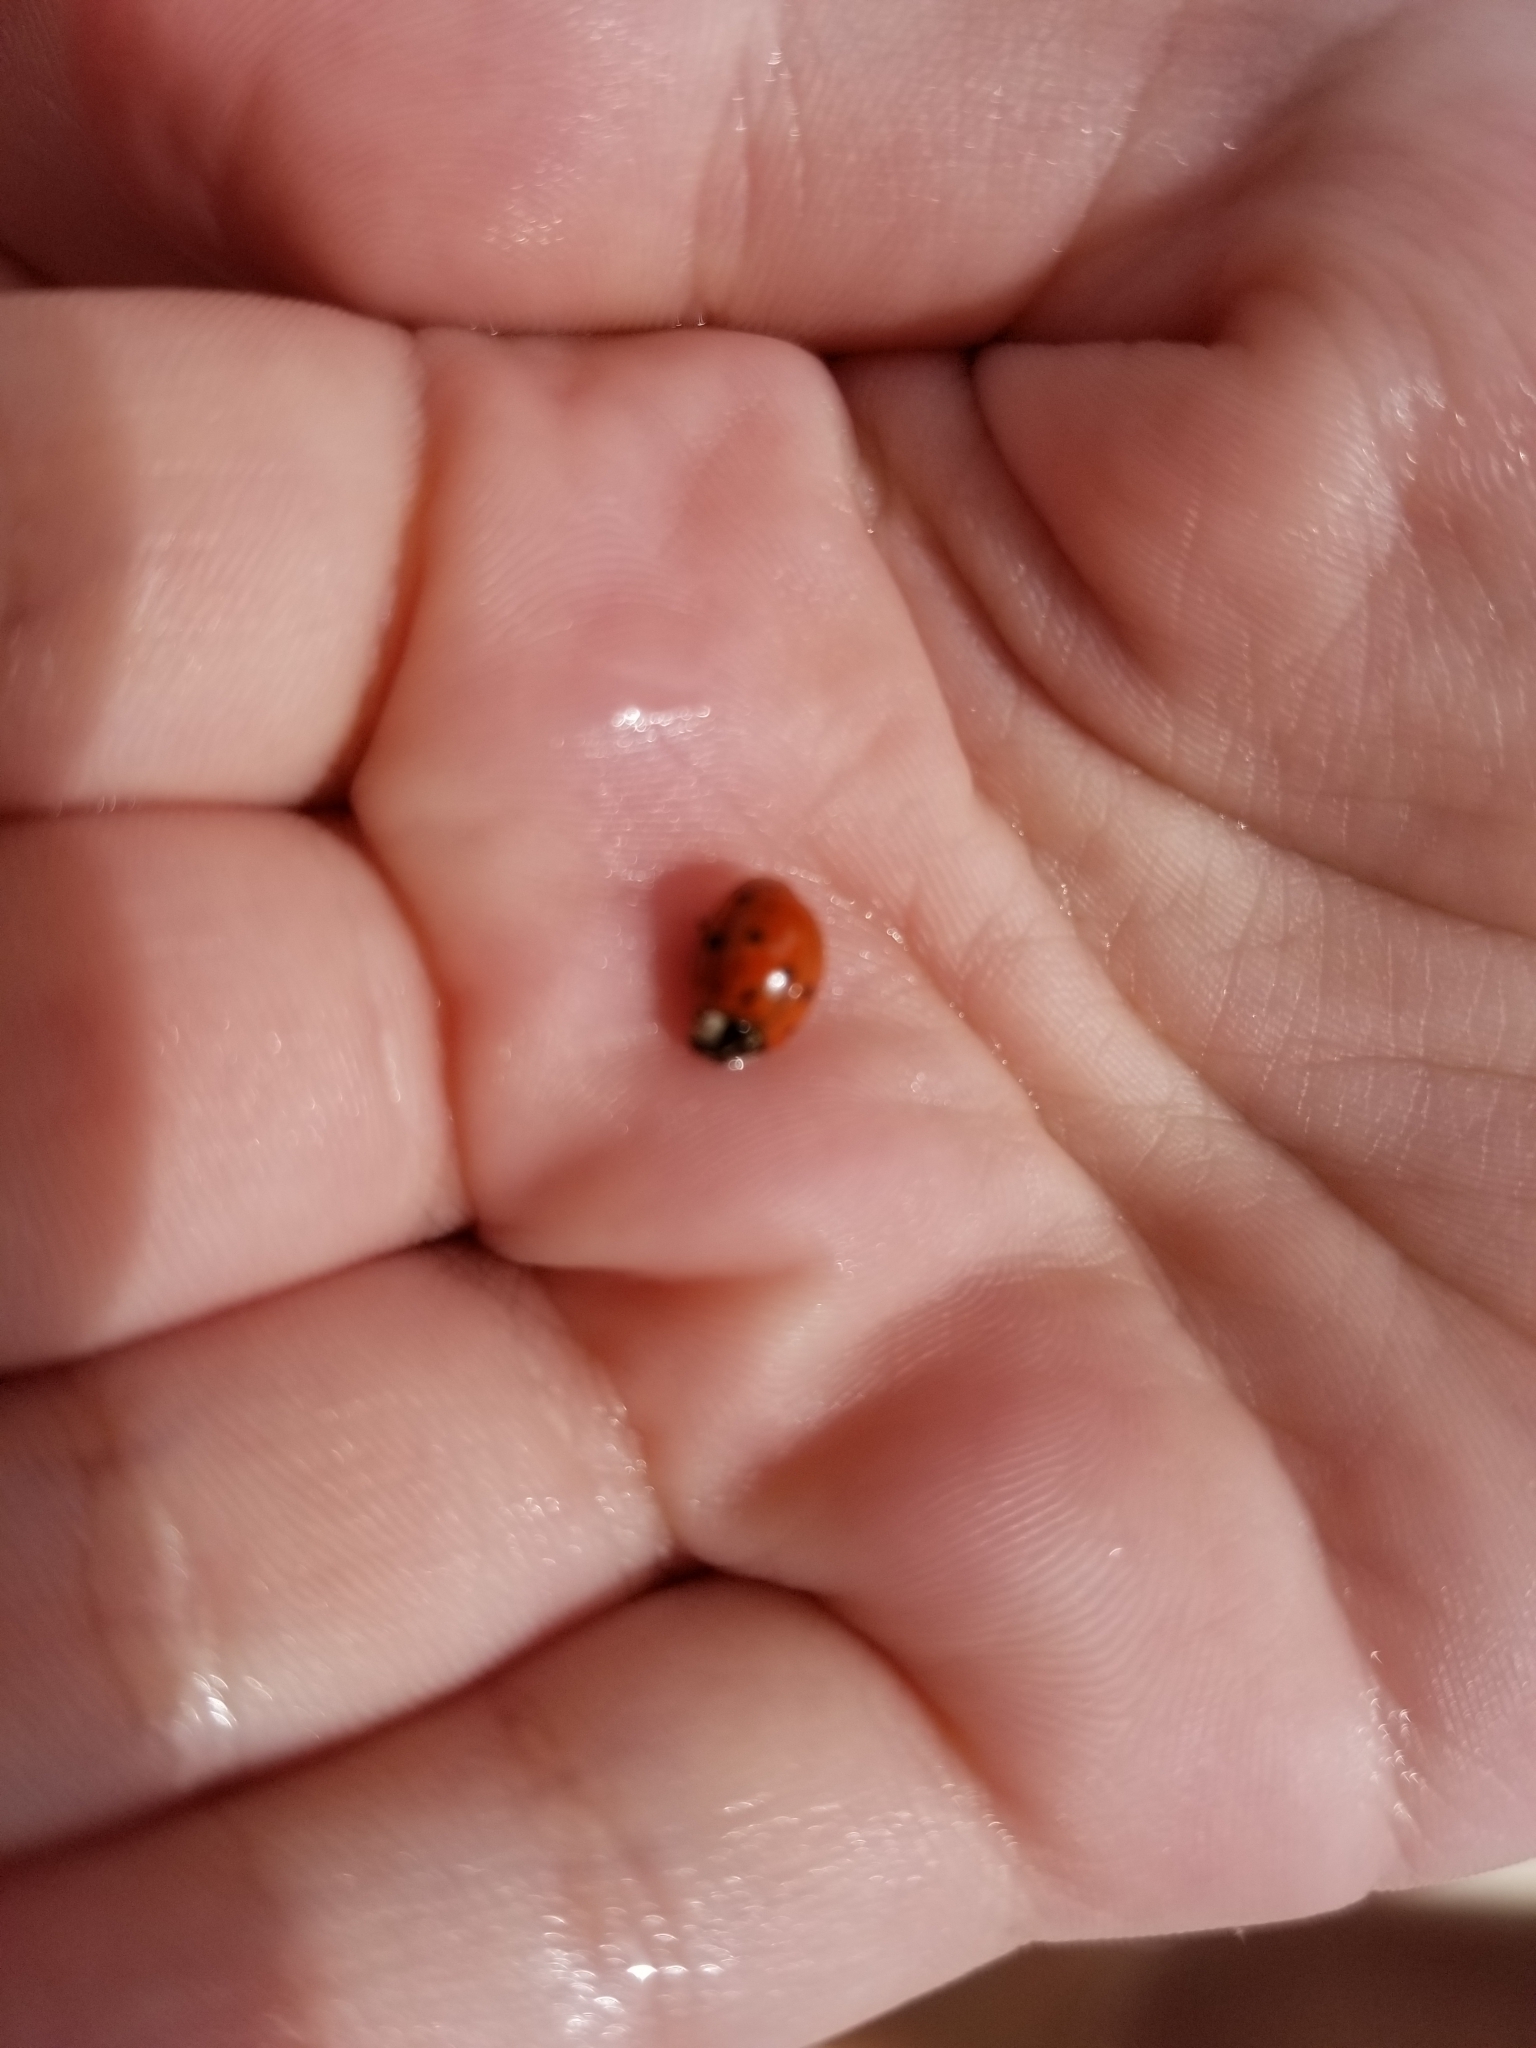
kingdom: Animalia
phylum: Arthropoda
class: Insecta
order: Coleoptera
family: Coccinellidae
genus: Harmonia
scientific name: Harmonia axyridis
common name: Harlequin ladybird
